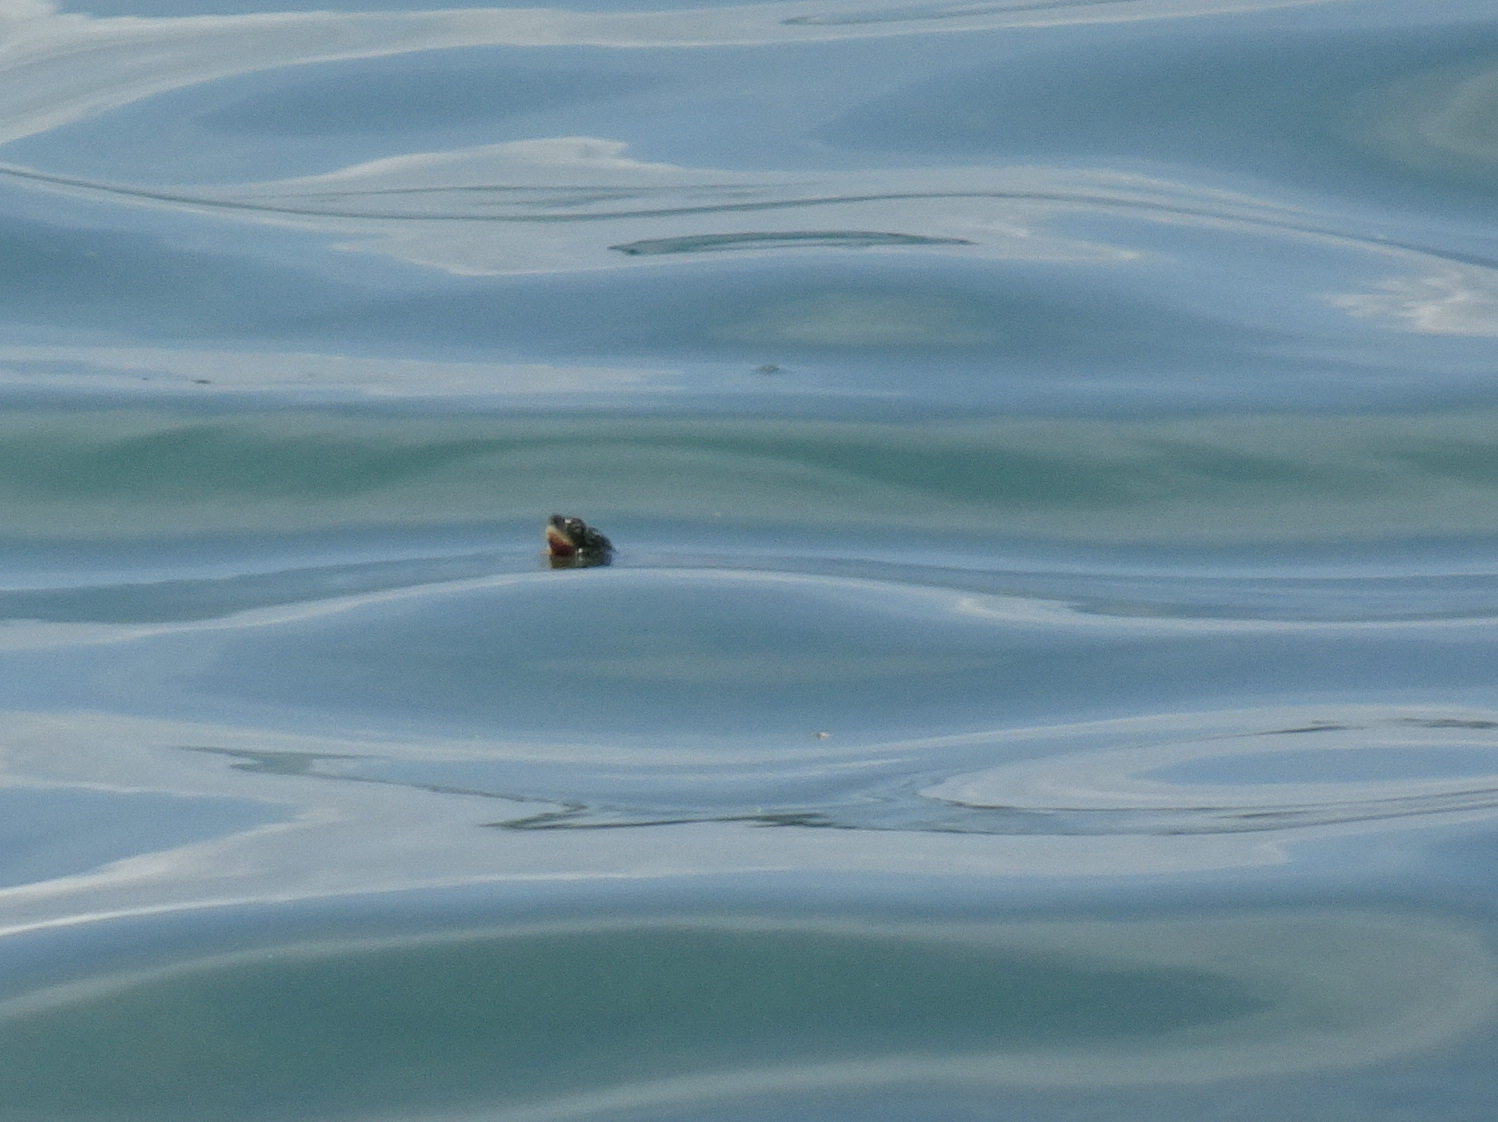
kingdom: Animalia
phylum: Chordata
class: Testudines
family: Emydidae
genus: Graptemys
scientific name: Graptemys geographica
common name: Common map turtle
